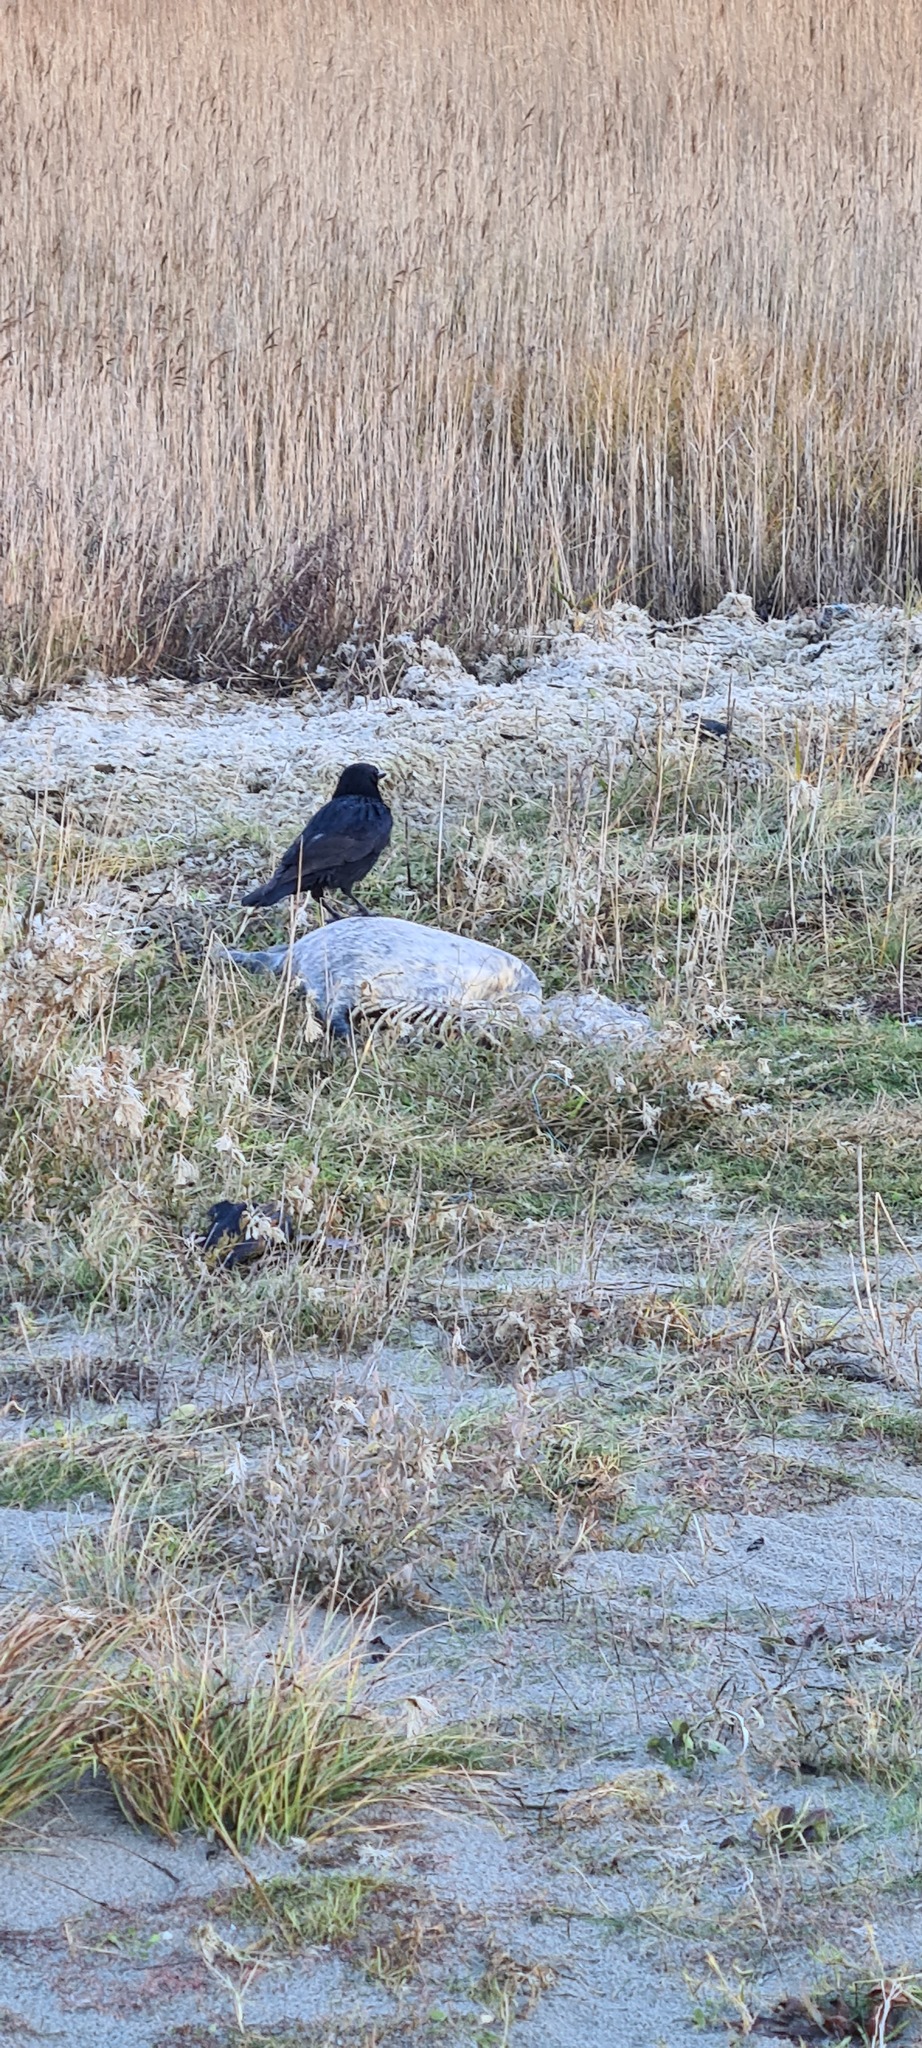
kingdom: Animalia
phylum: Chordata
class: Aves
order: Passeriformes
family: Corvidae
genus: Corvus
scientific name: Corvus corone
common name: Carrion crow
